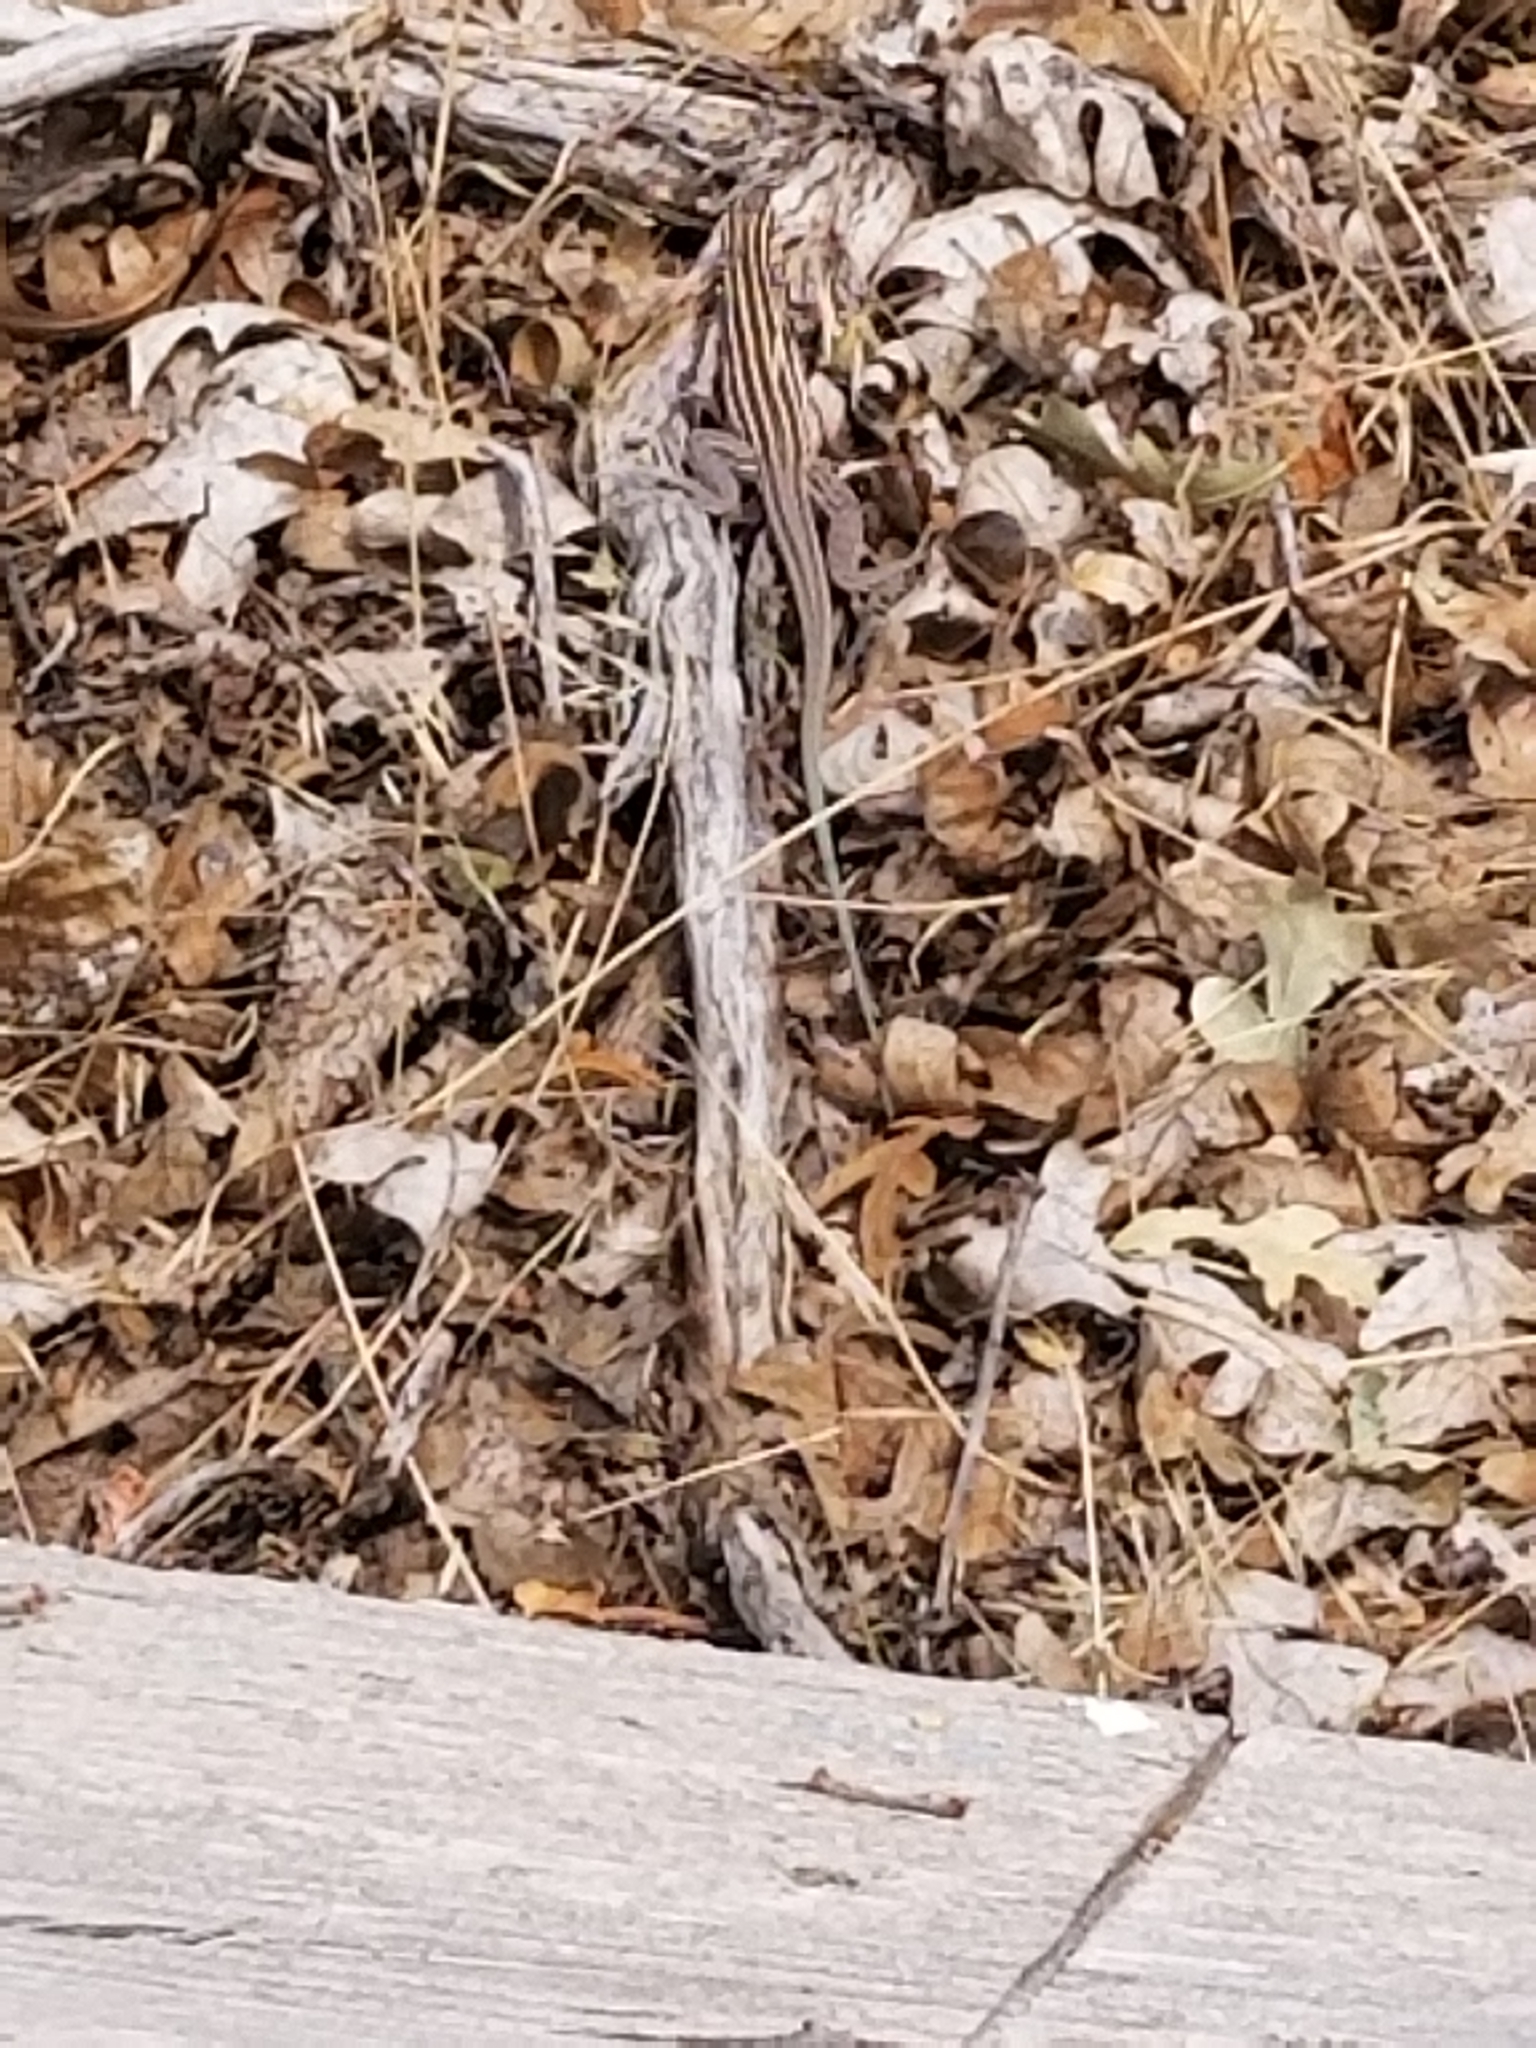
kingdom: Animalia
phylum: Chordata
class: Squamata
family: Teiidae
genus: Aspidoscelis
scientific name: Aspidoscelis velox
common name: Plateau striped whiptail
